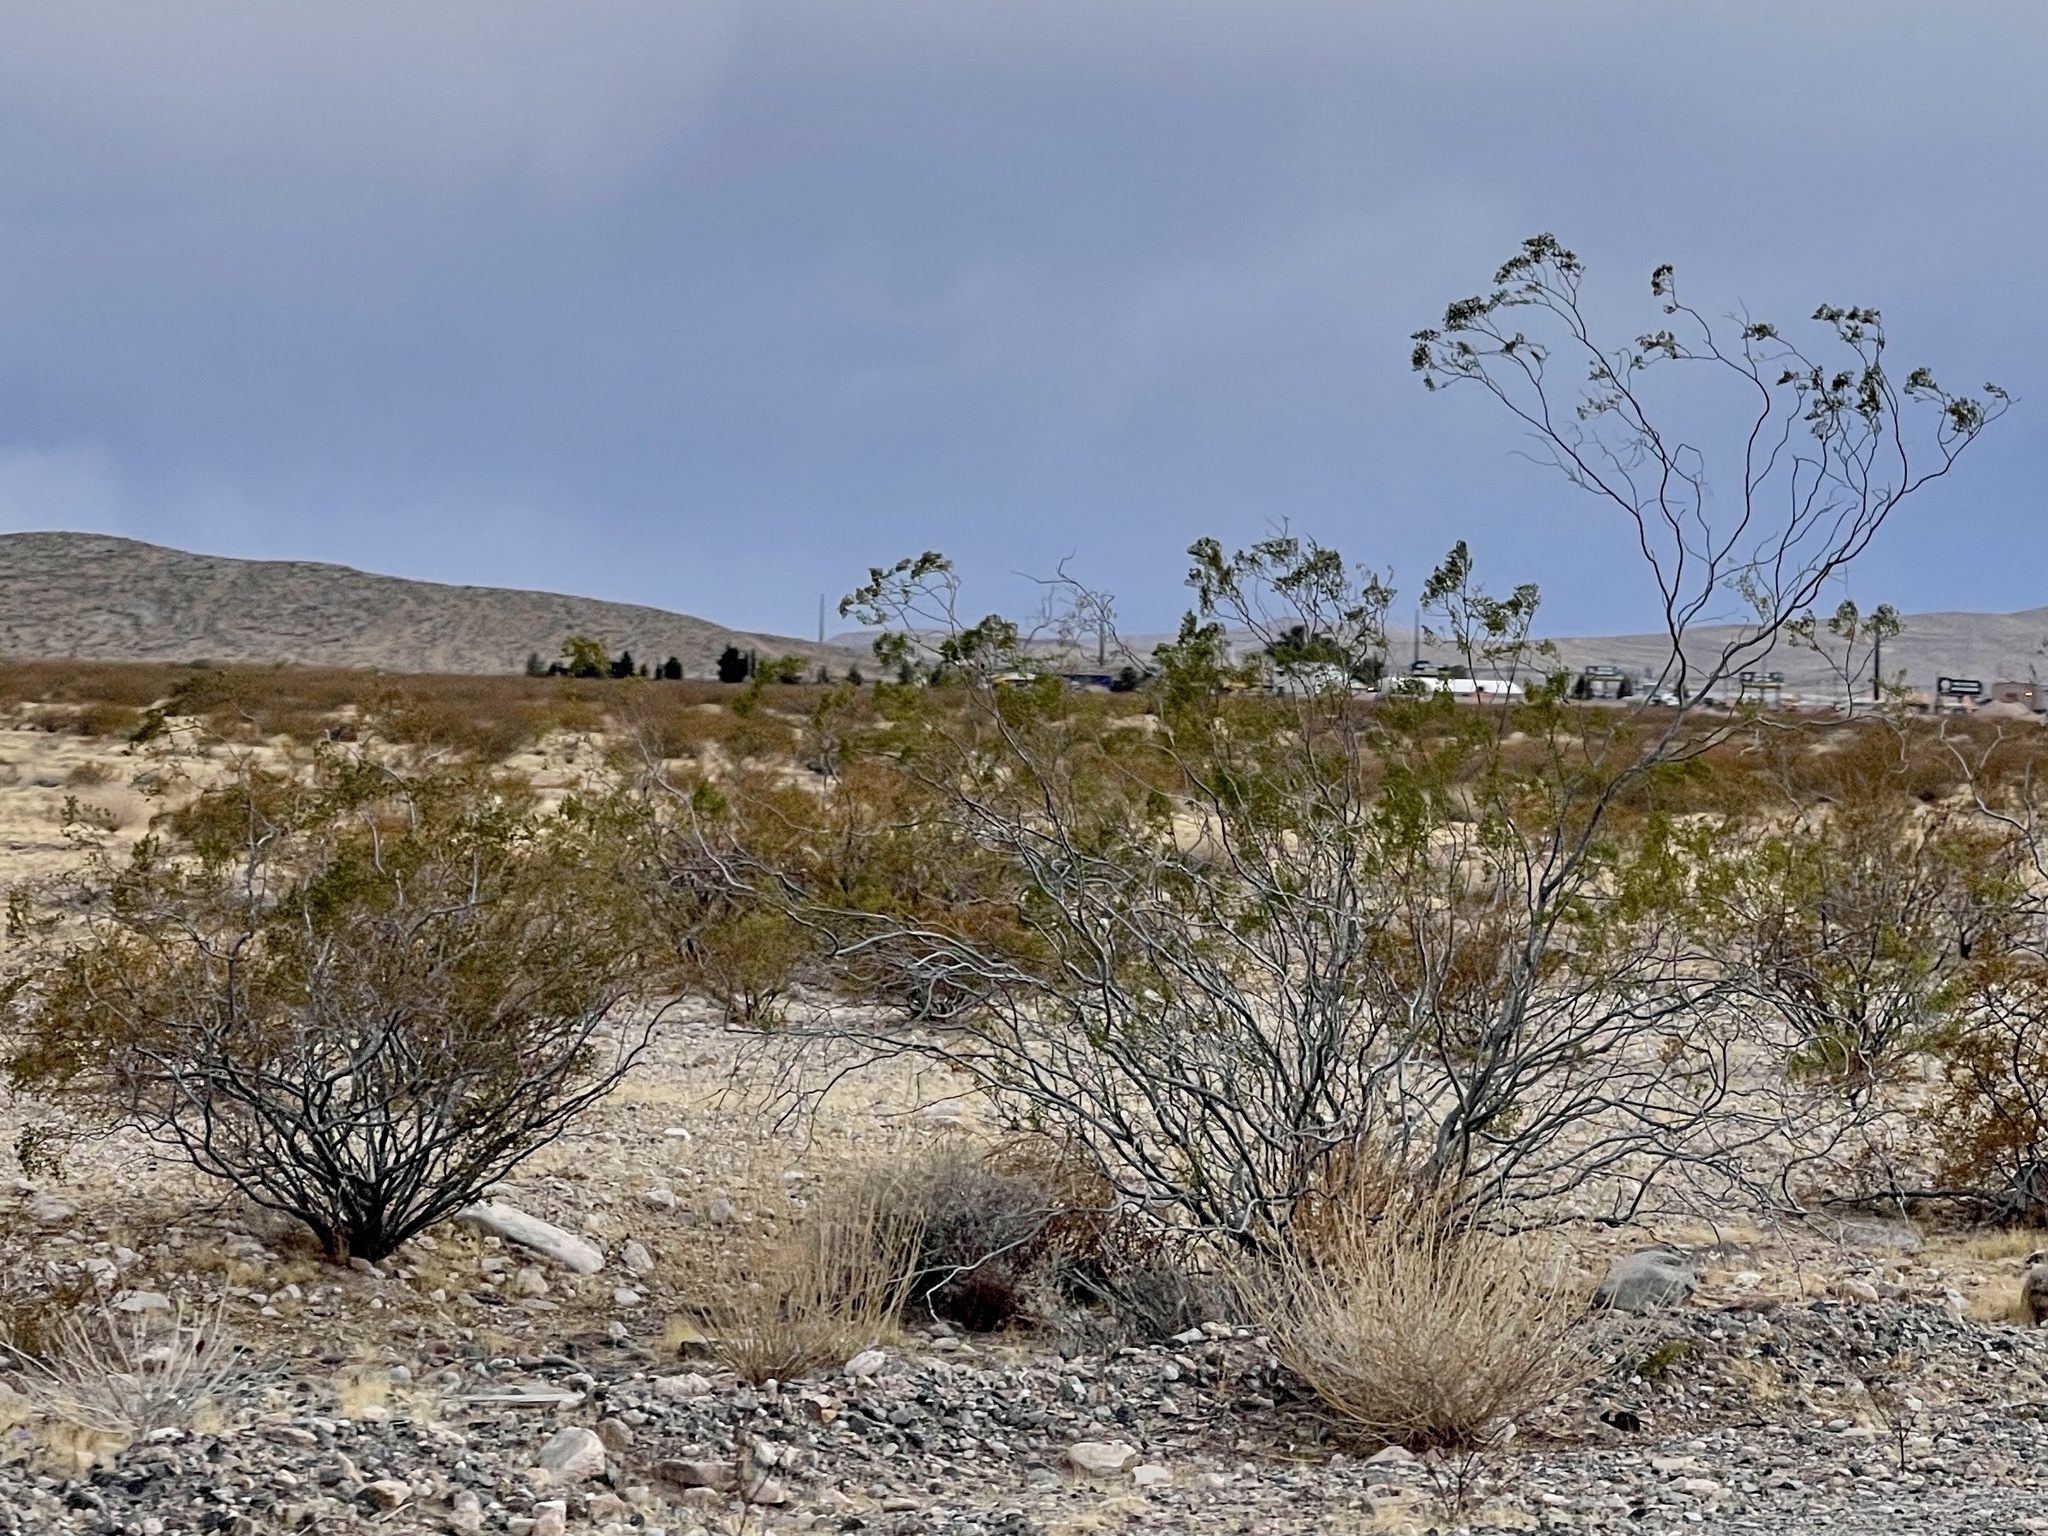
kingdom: Plantae
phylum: Tracheophyta
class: Magnoliopsida
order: Zygophyllales
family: Zygophyllaceae
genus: Larrea
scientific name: Larrea tridentata
